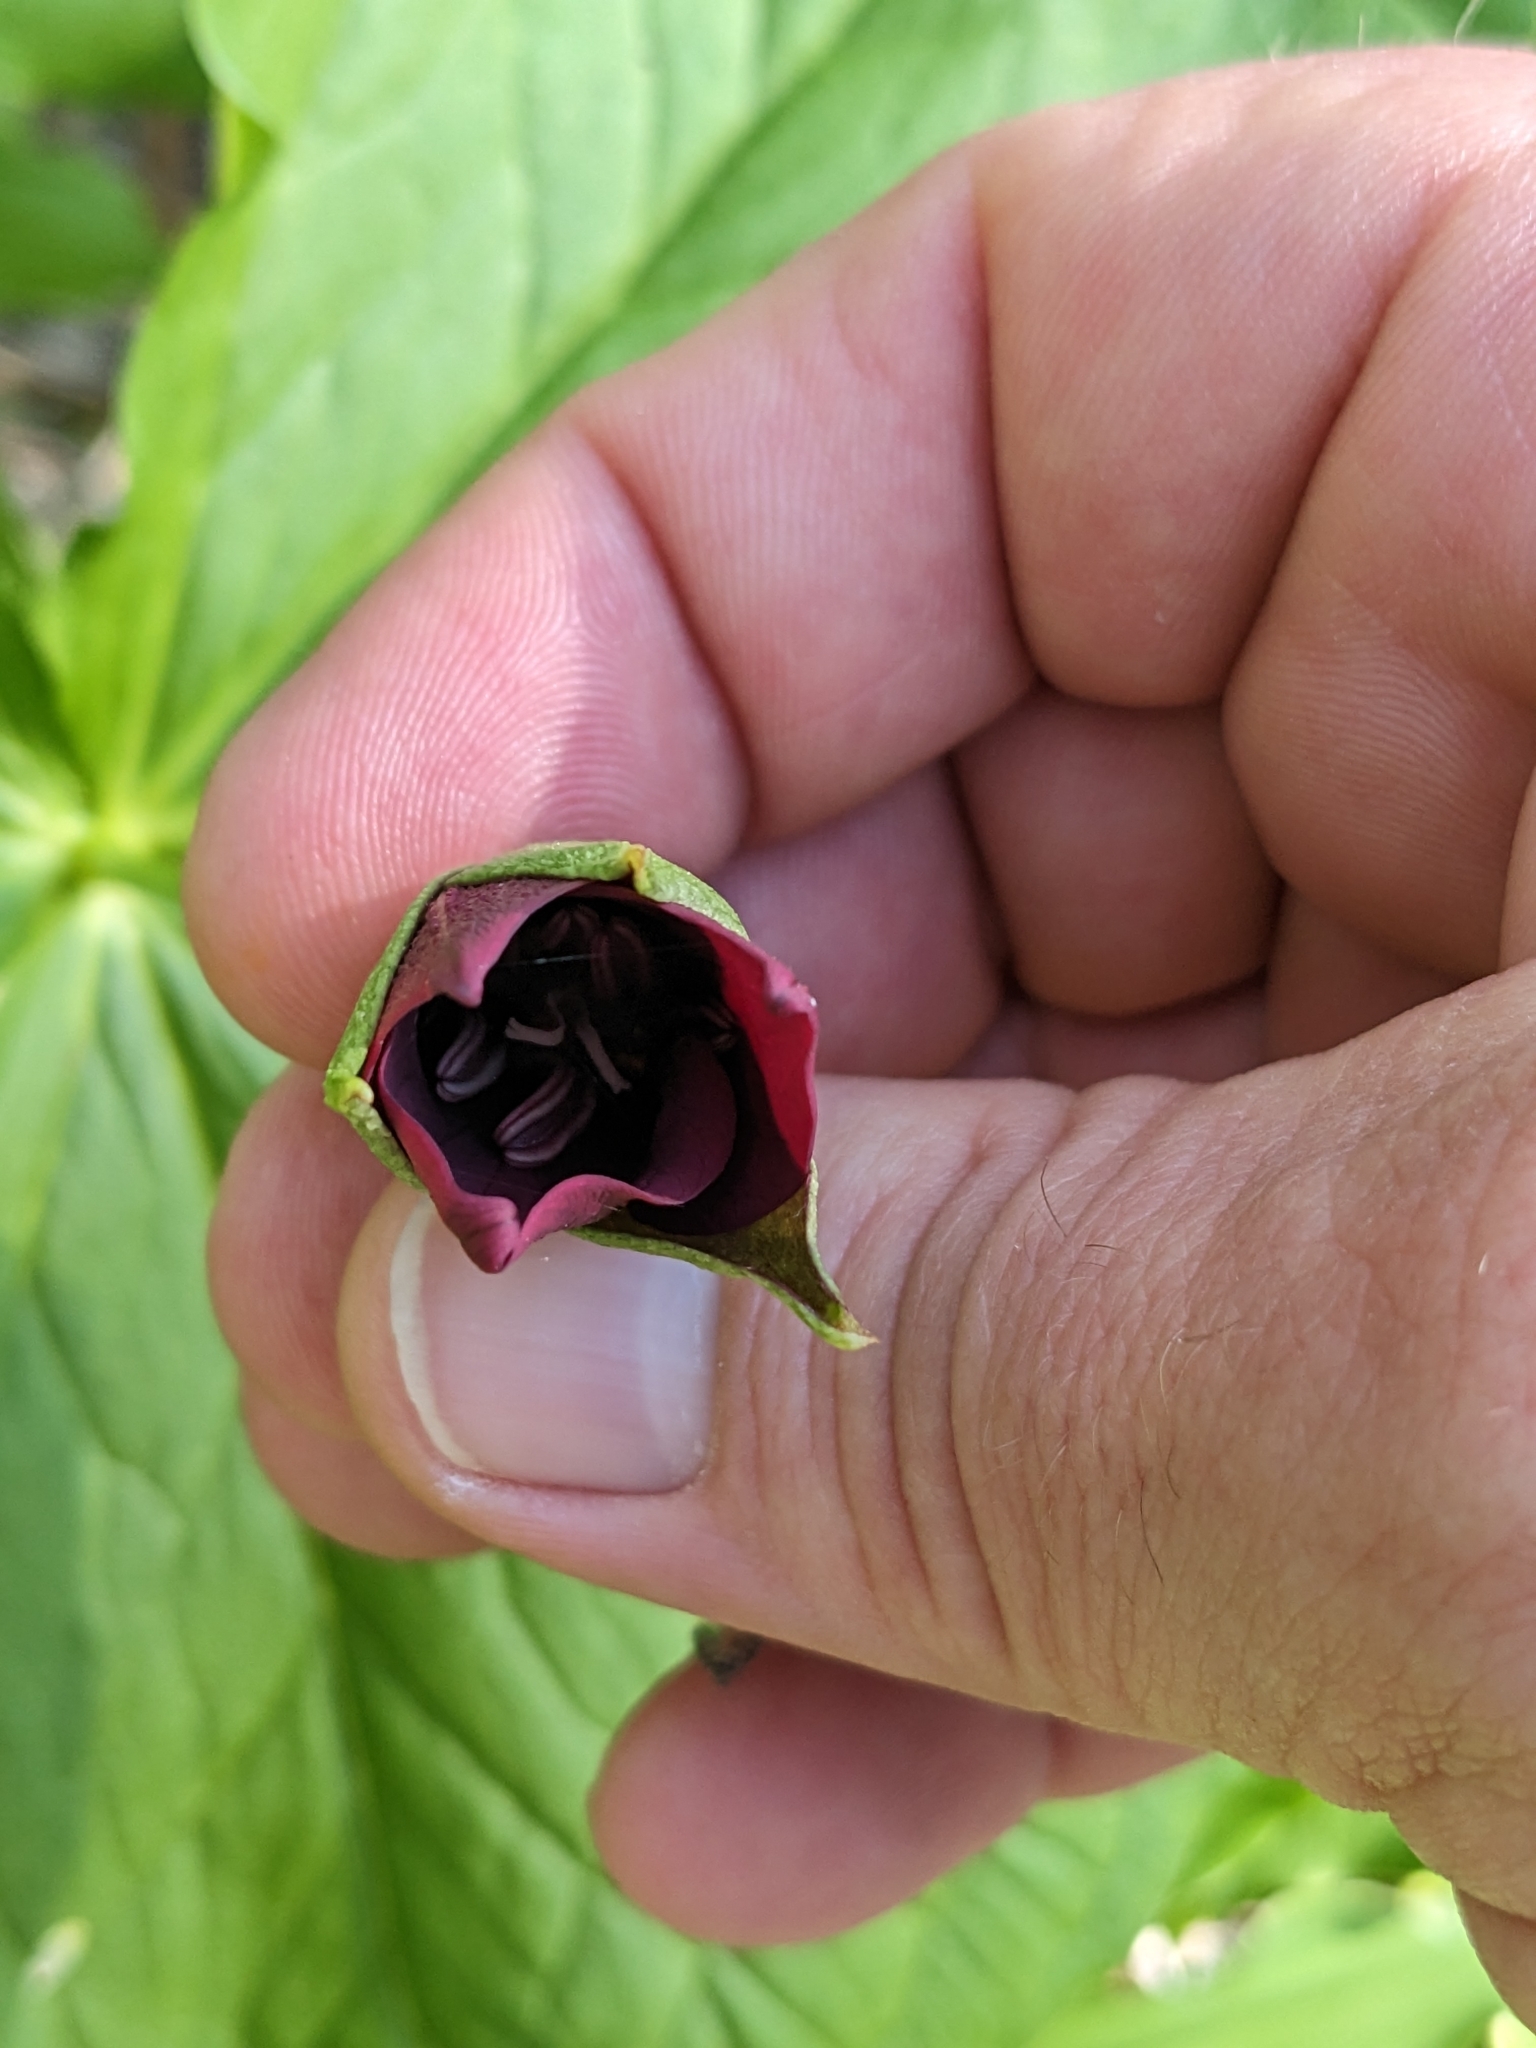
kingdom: Plantae
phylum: Tracheophyta
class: Liliopsida
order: Liliales
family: Melanthiaceae
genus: Trillium
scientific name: Trillium erectum
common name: Purple trillium
